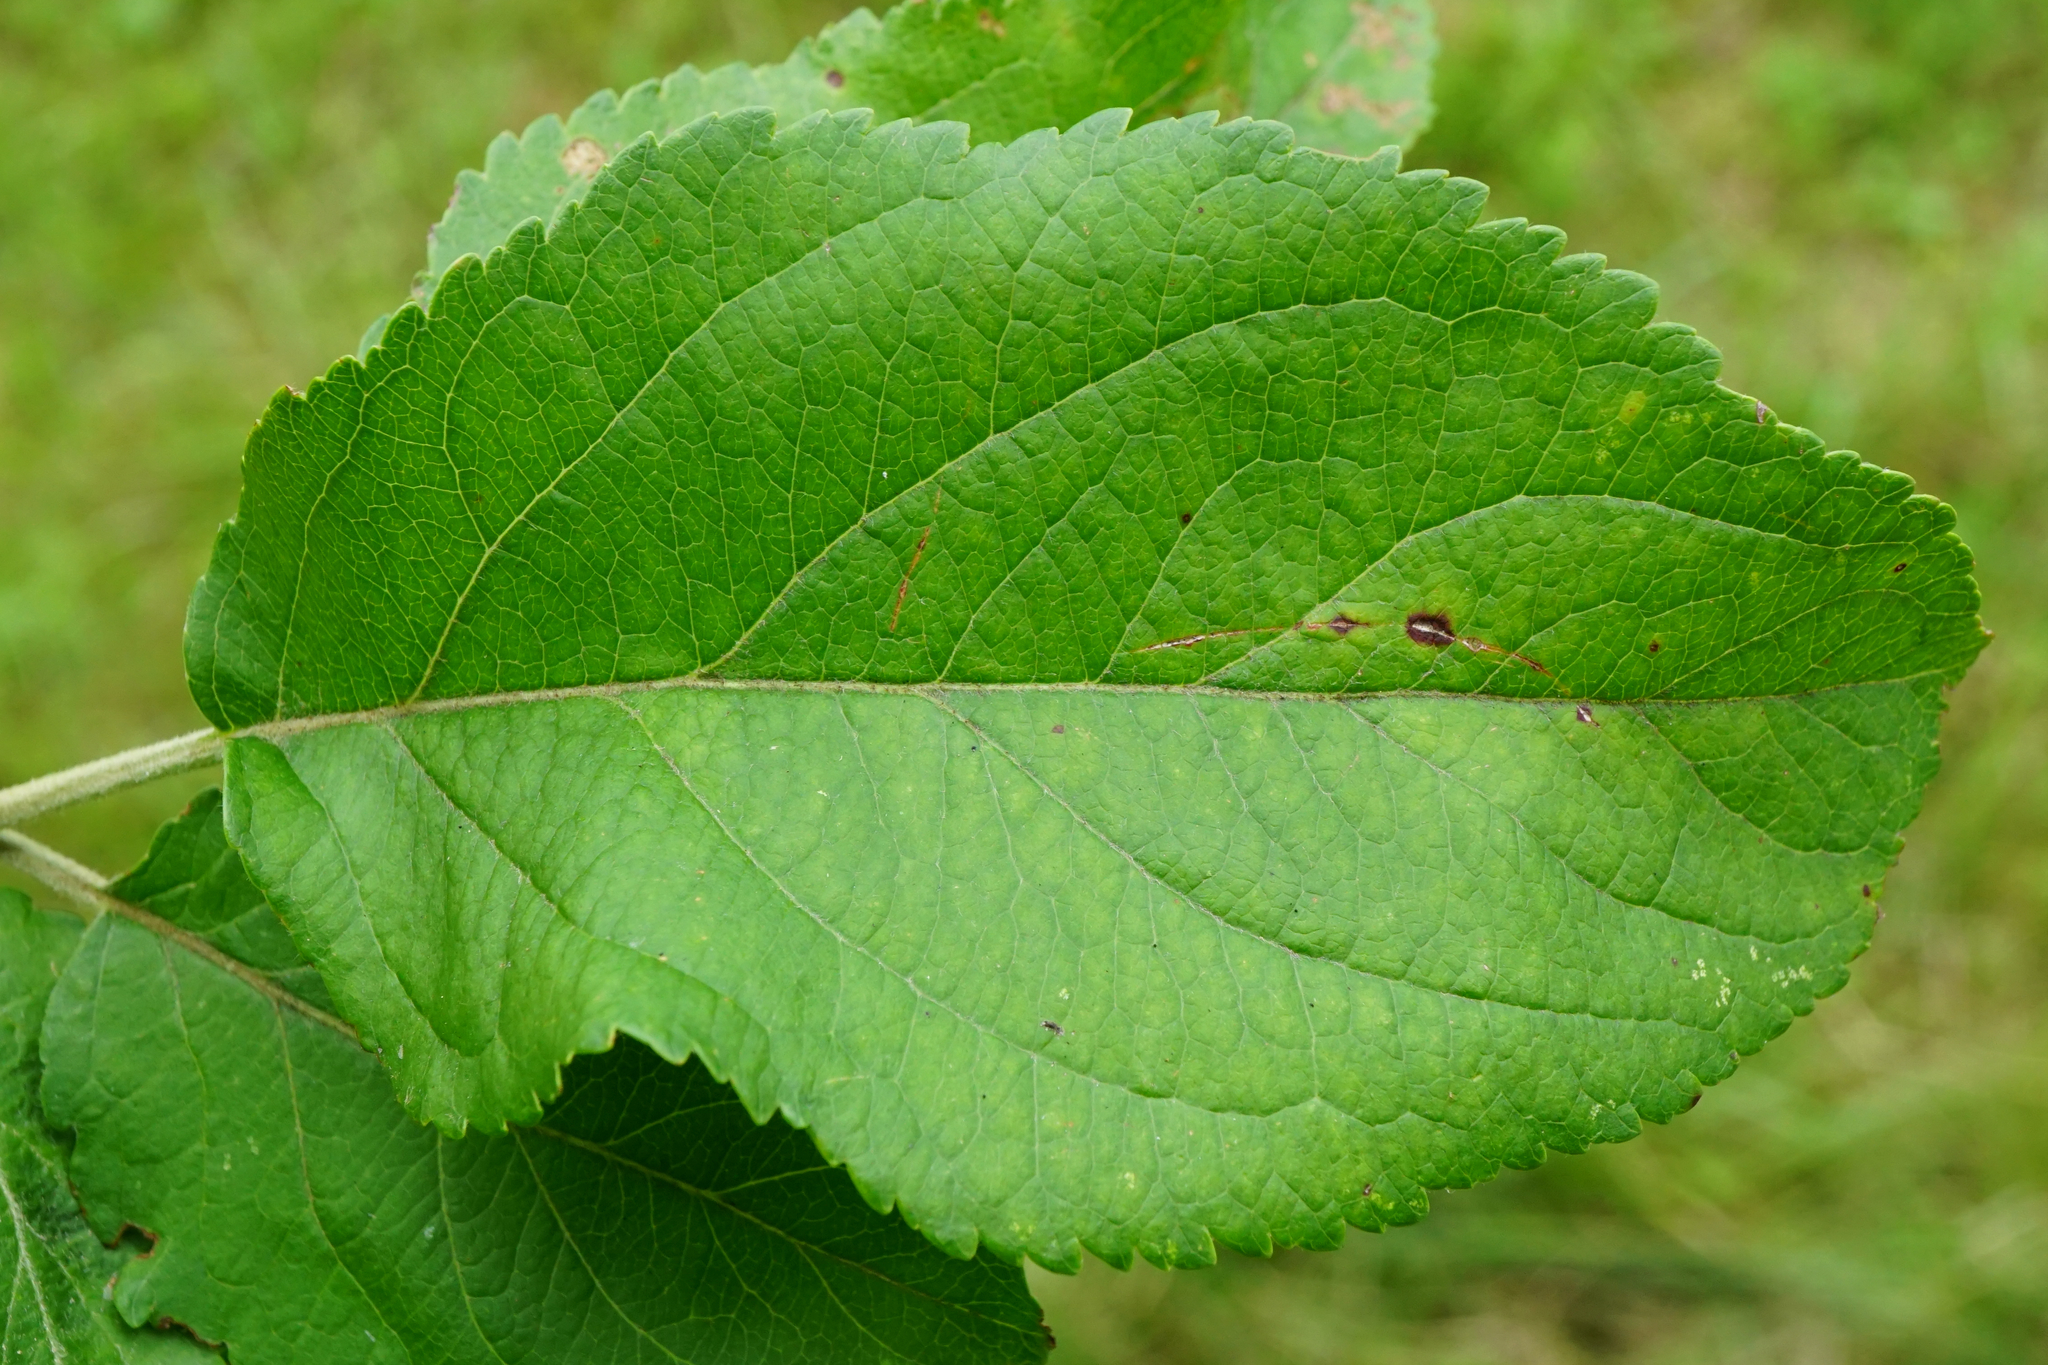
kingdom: Plantae
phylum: Tracheophyta
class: Magnoliopsida
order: Rosales
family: Rosaceae
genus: Malus
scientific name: Malus domestica
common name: Apple
